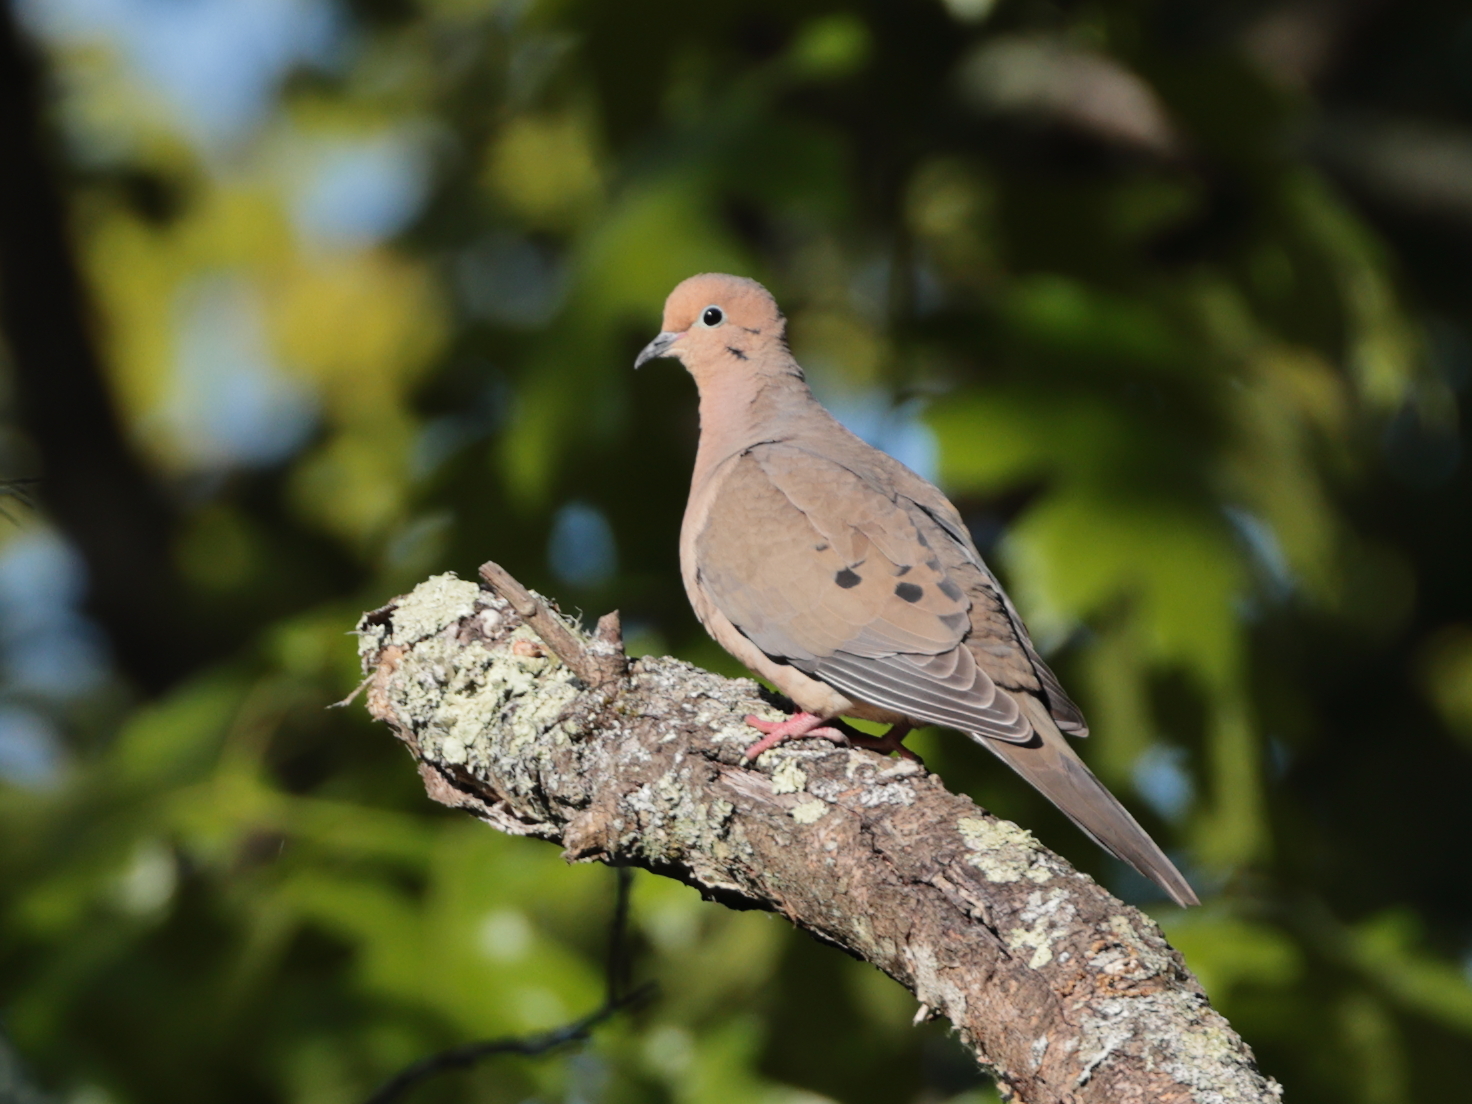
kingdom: Animalia
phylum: Chordata
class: Aves
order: Columbiformes
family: Columbidae
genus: Zenaida
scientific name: Zenaida macroura
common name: Mourning dove
